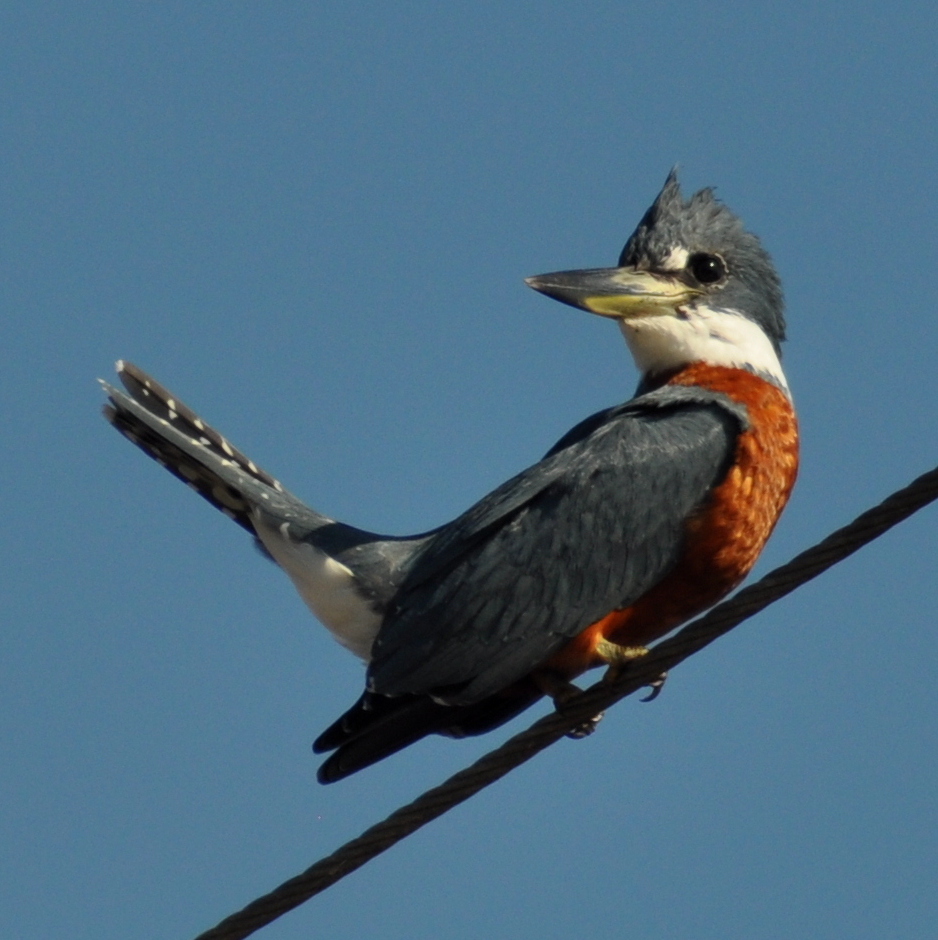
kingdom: Animalia
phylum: Chordata
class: Aves
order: Coraciiformes
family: Alcedinidae
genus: Megaceryle
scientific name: Megaceryle torquata
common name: Ringed kingfisher
